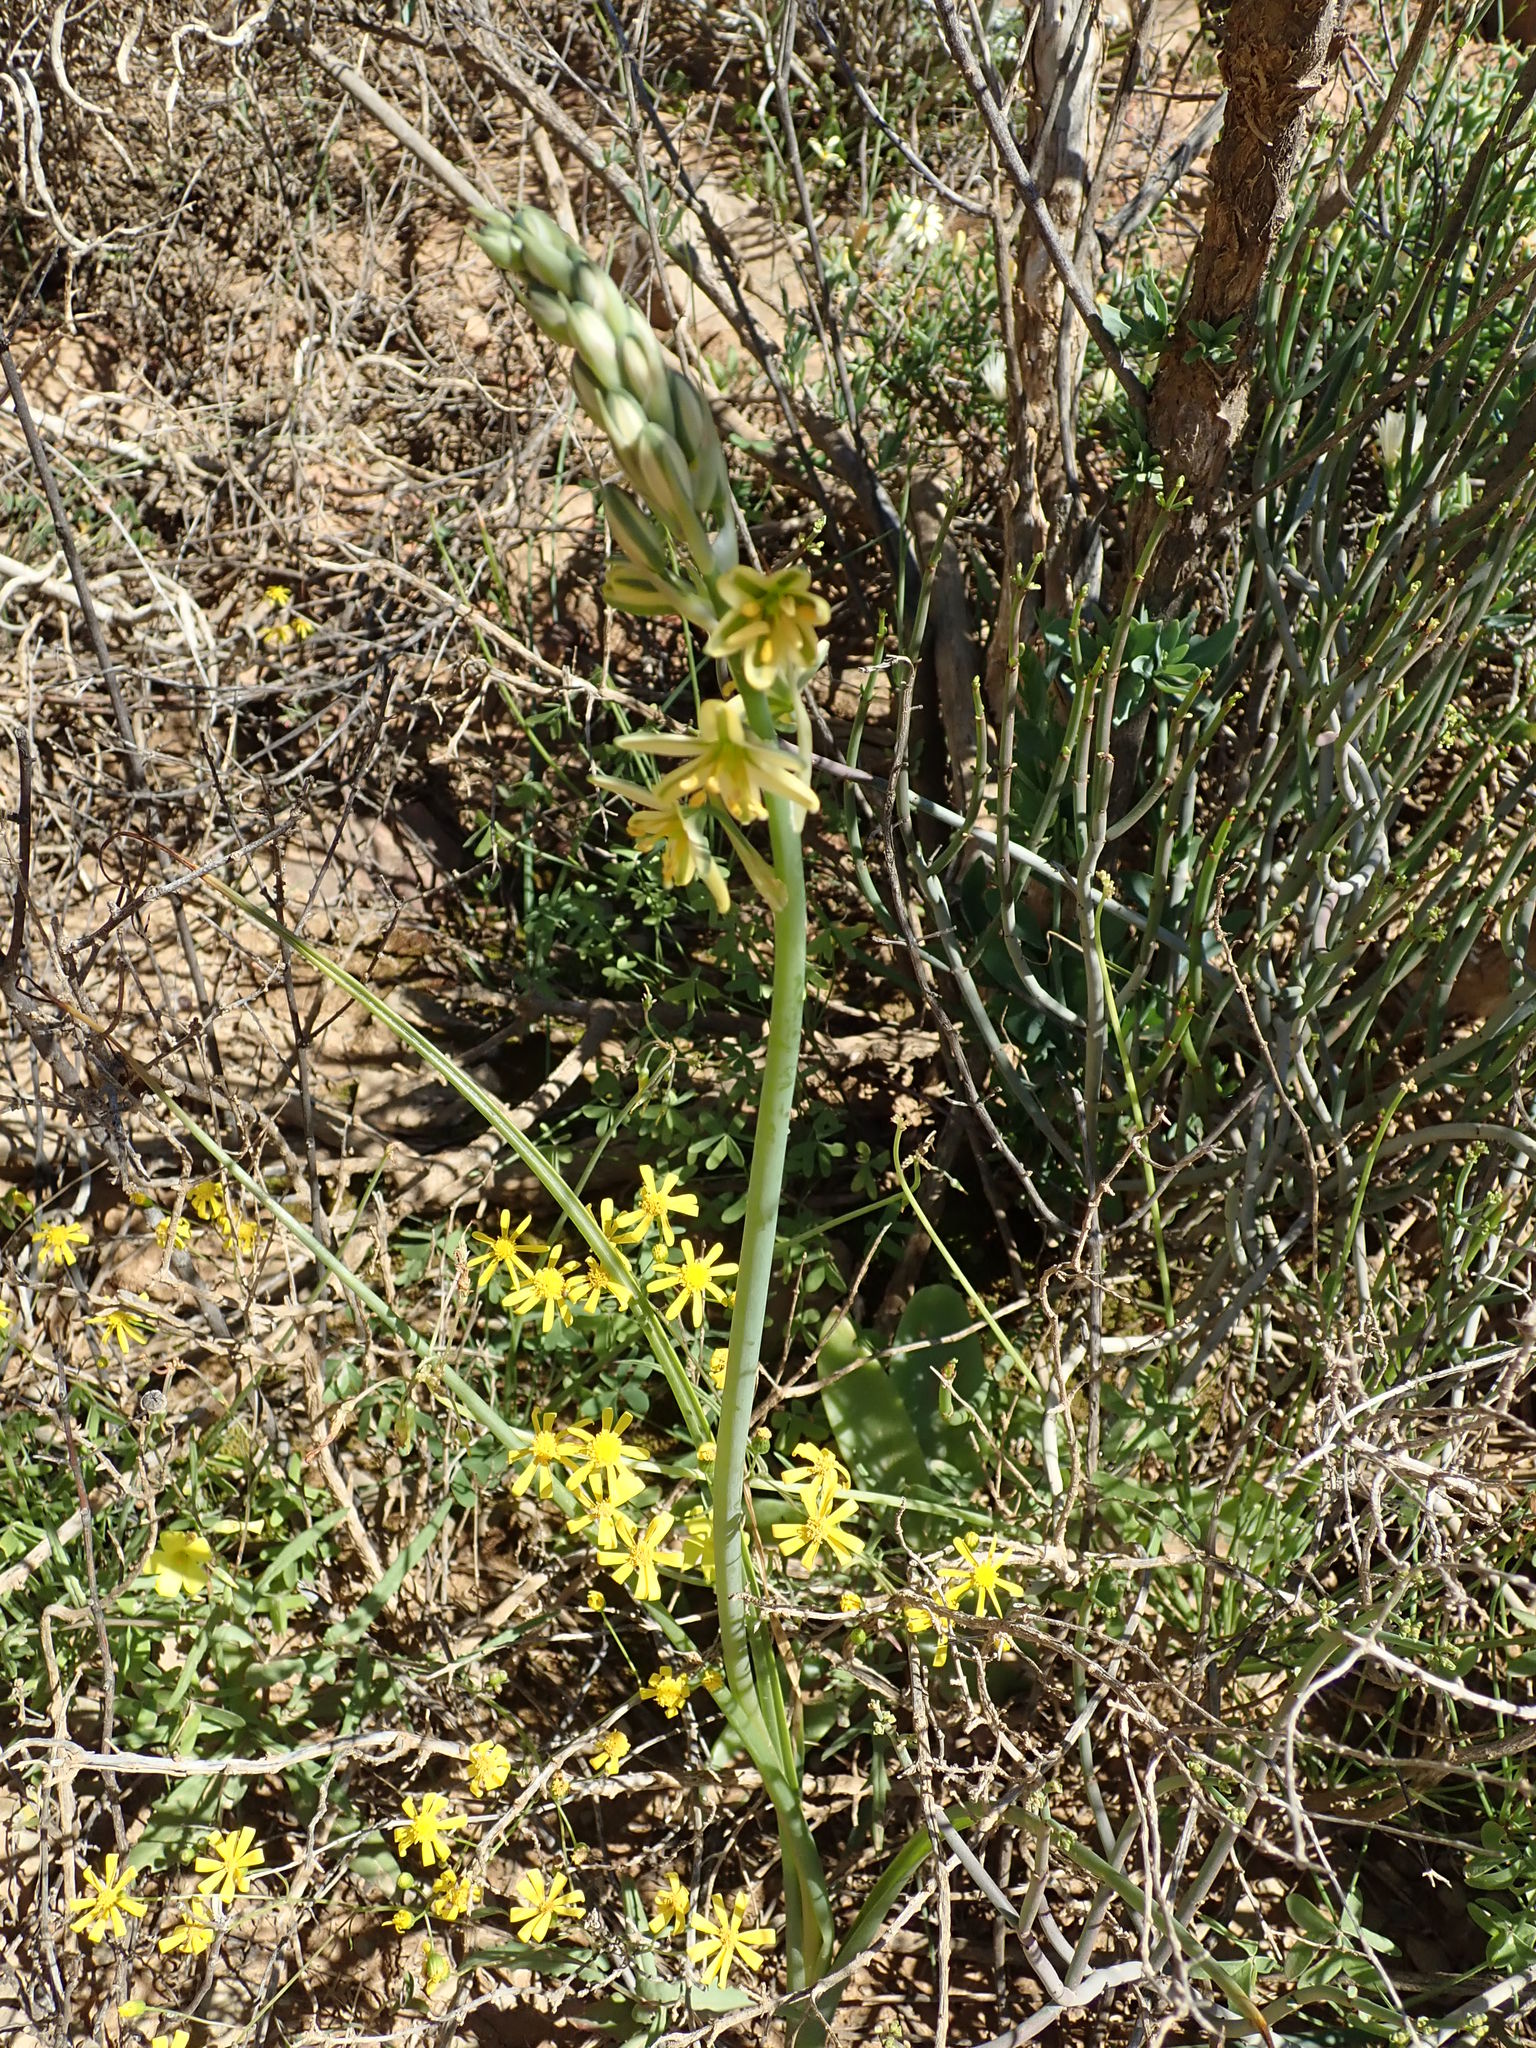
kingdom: Plantae
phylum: Tracheophyta
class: Liliopsida
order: Asparagales
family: Asparagaceae
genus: Albuca
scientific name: Albuca suaveolens
